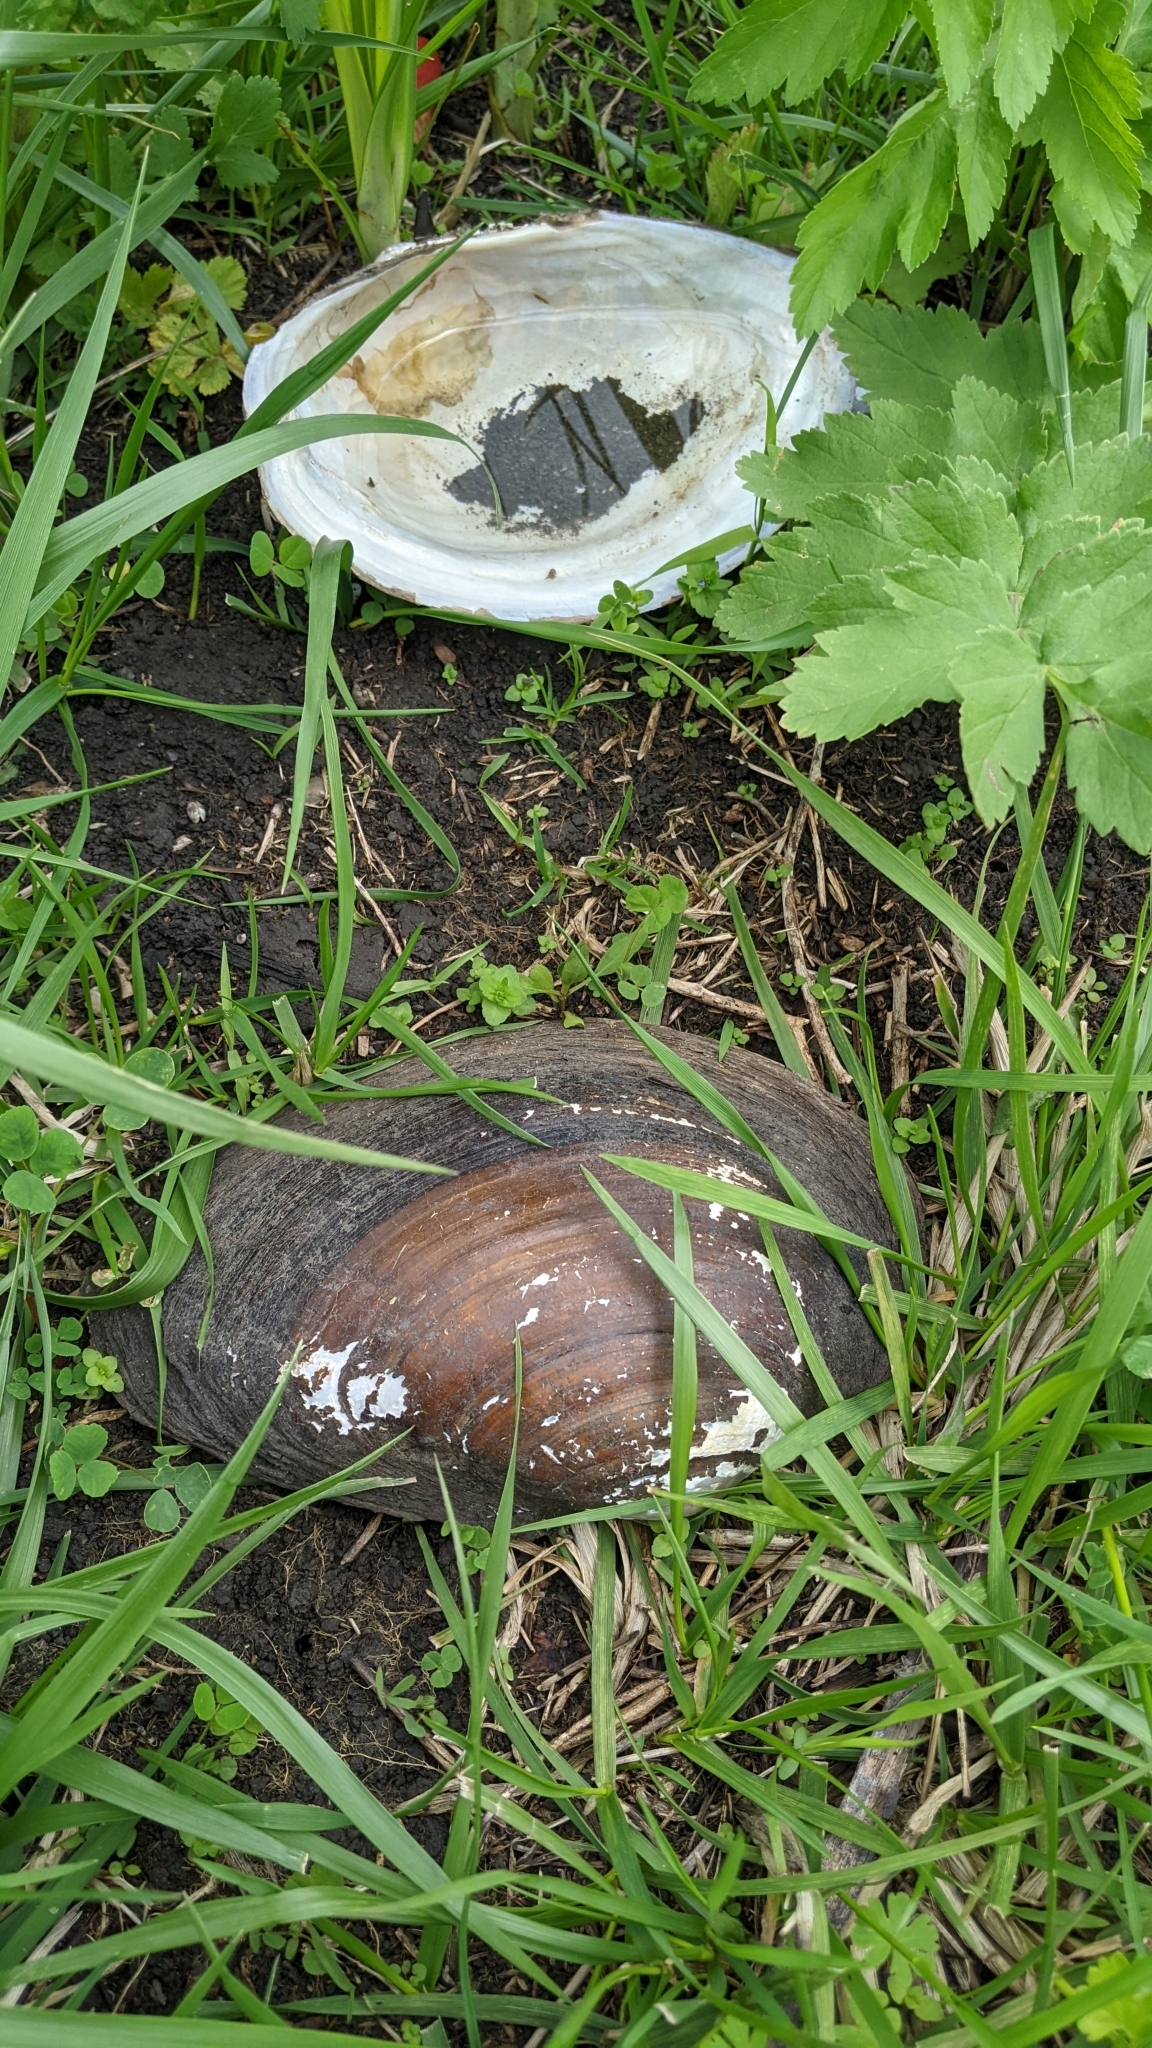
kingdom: Animalia
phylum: Mollusca
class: Bivalvia
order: Unionida
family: Unionidae
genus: Pyganodon
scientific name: Pyganodon grandis
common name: Giant floater
